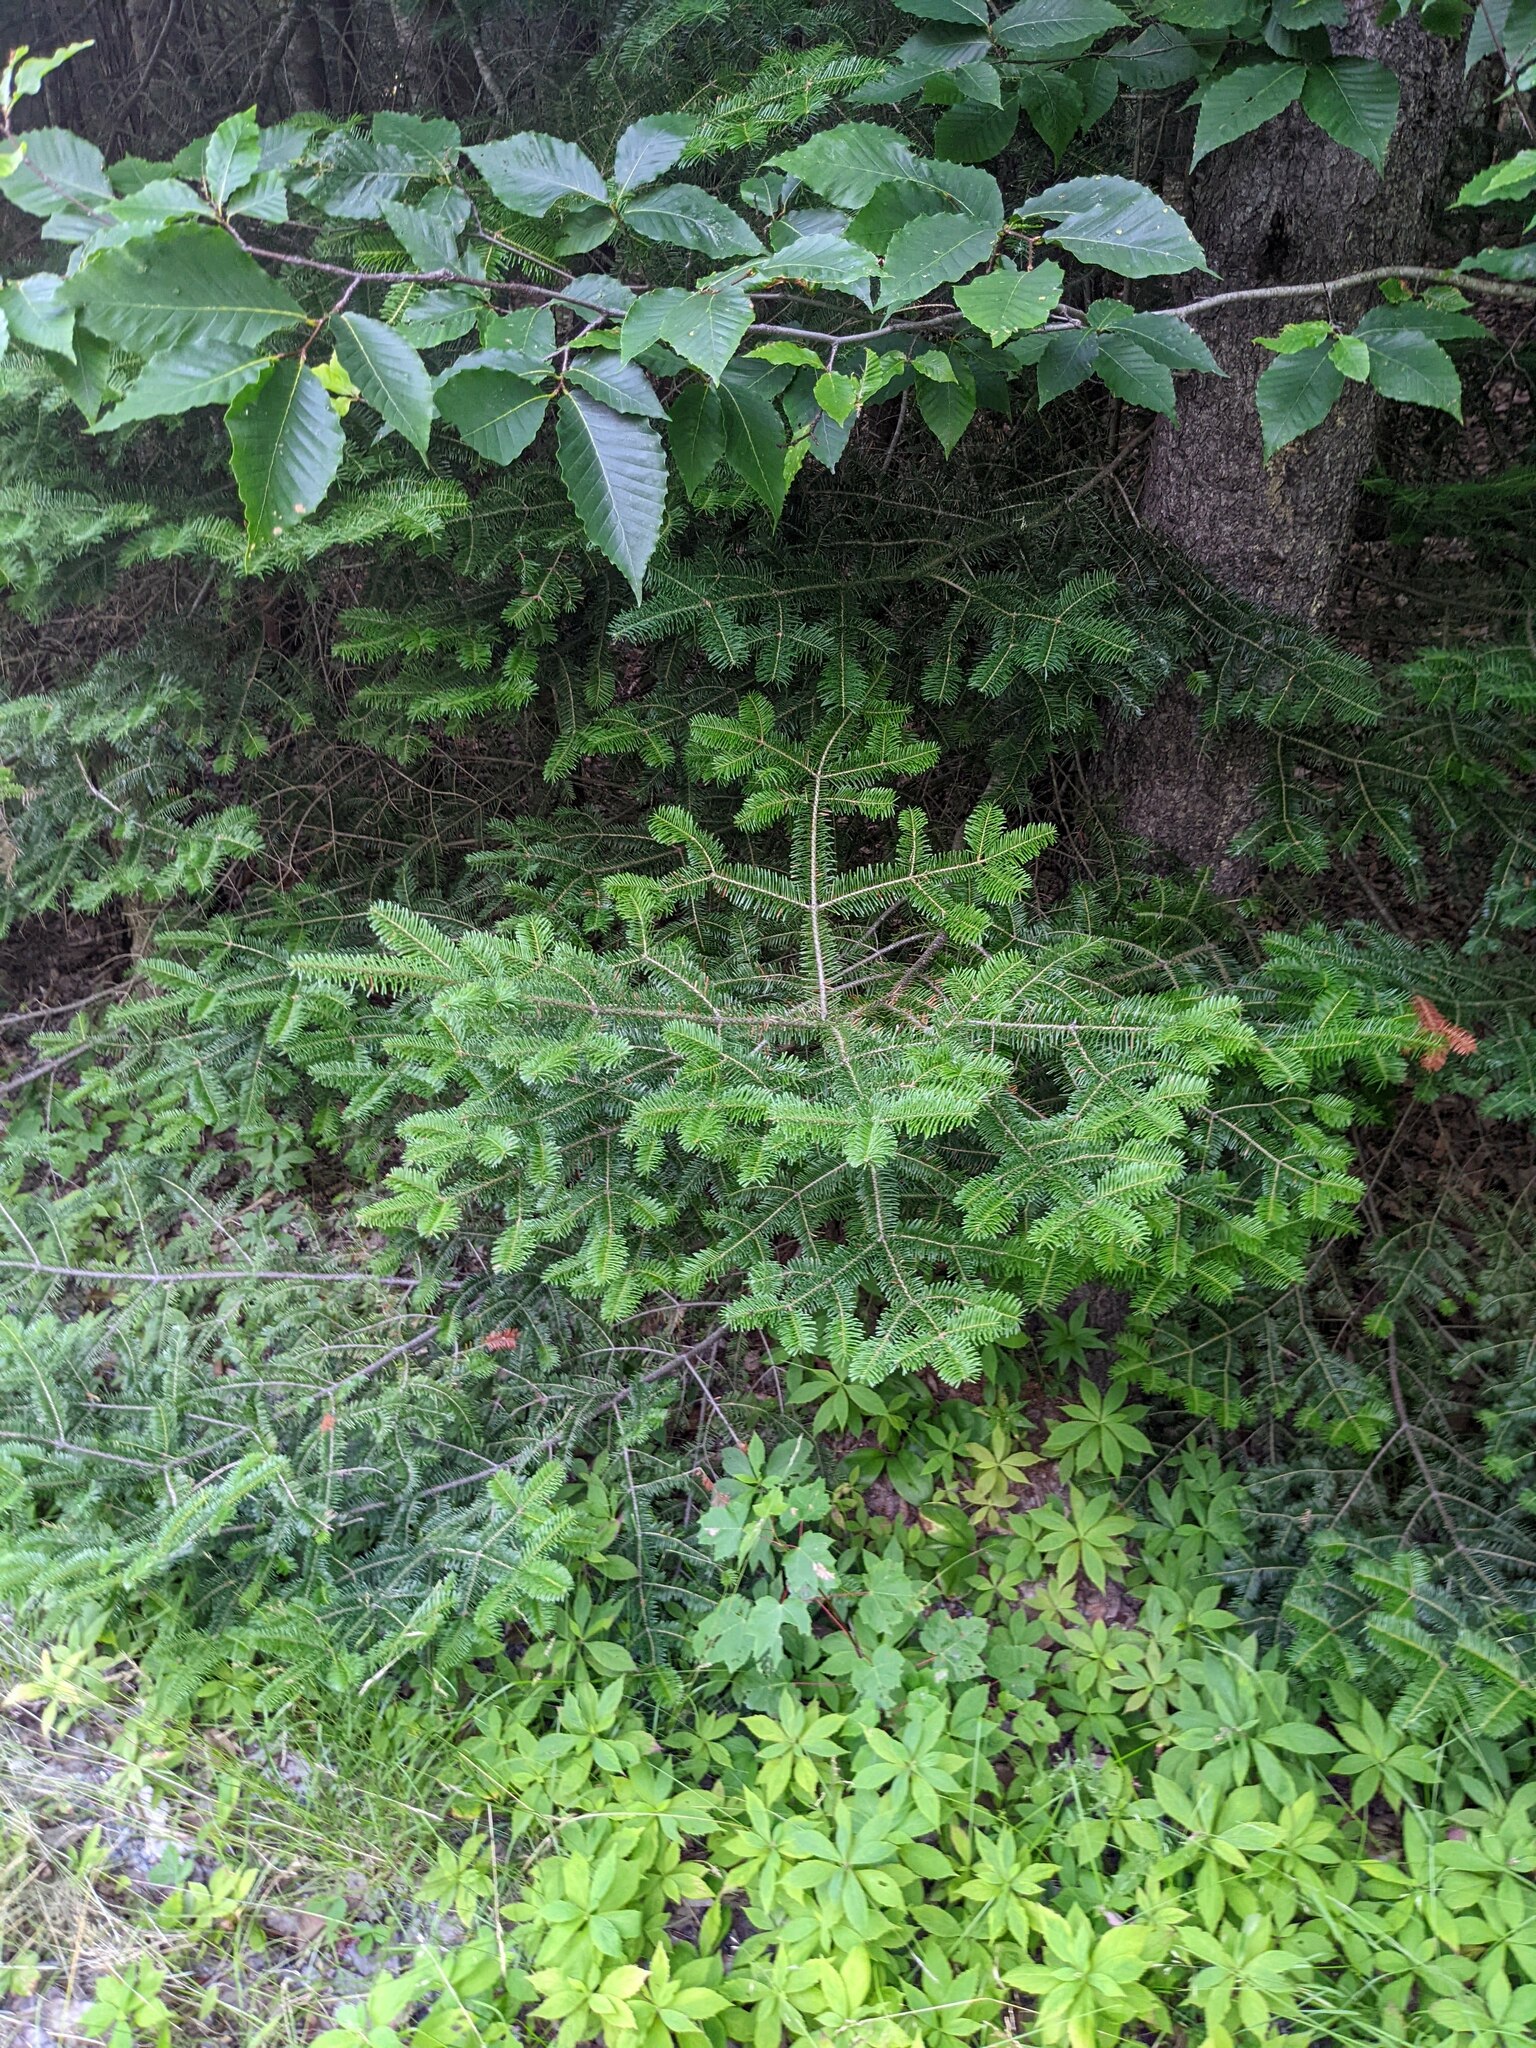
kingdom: Plantae
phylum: Tracheophyta
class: Pinopsida
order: Pinales
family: Pinaceae
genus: Abies
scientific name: Abies balsamea
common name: Balsam fir
